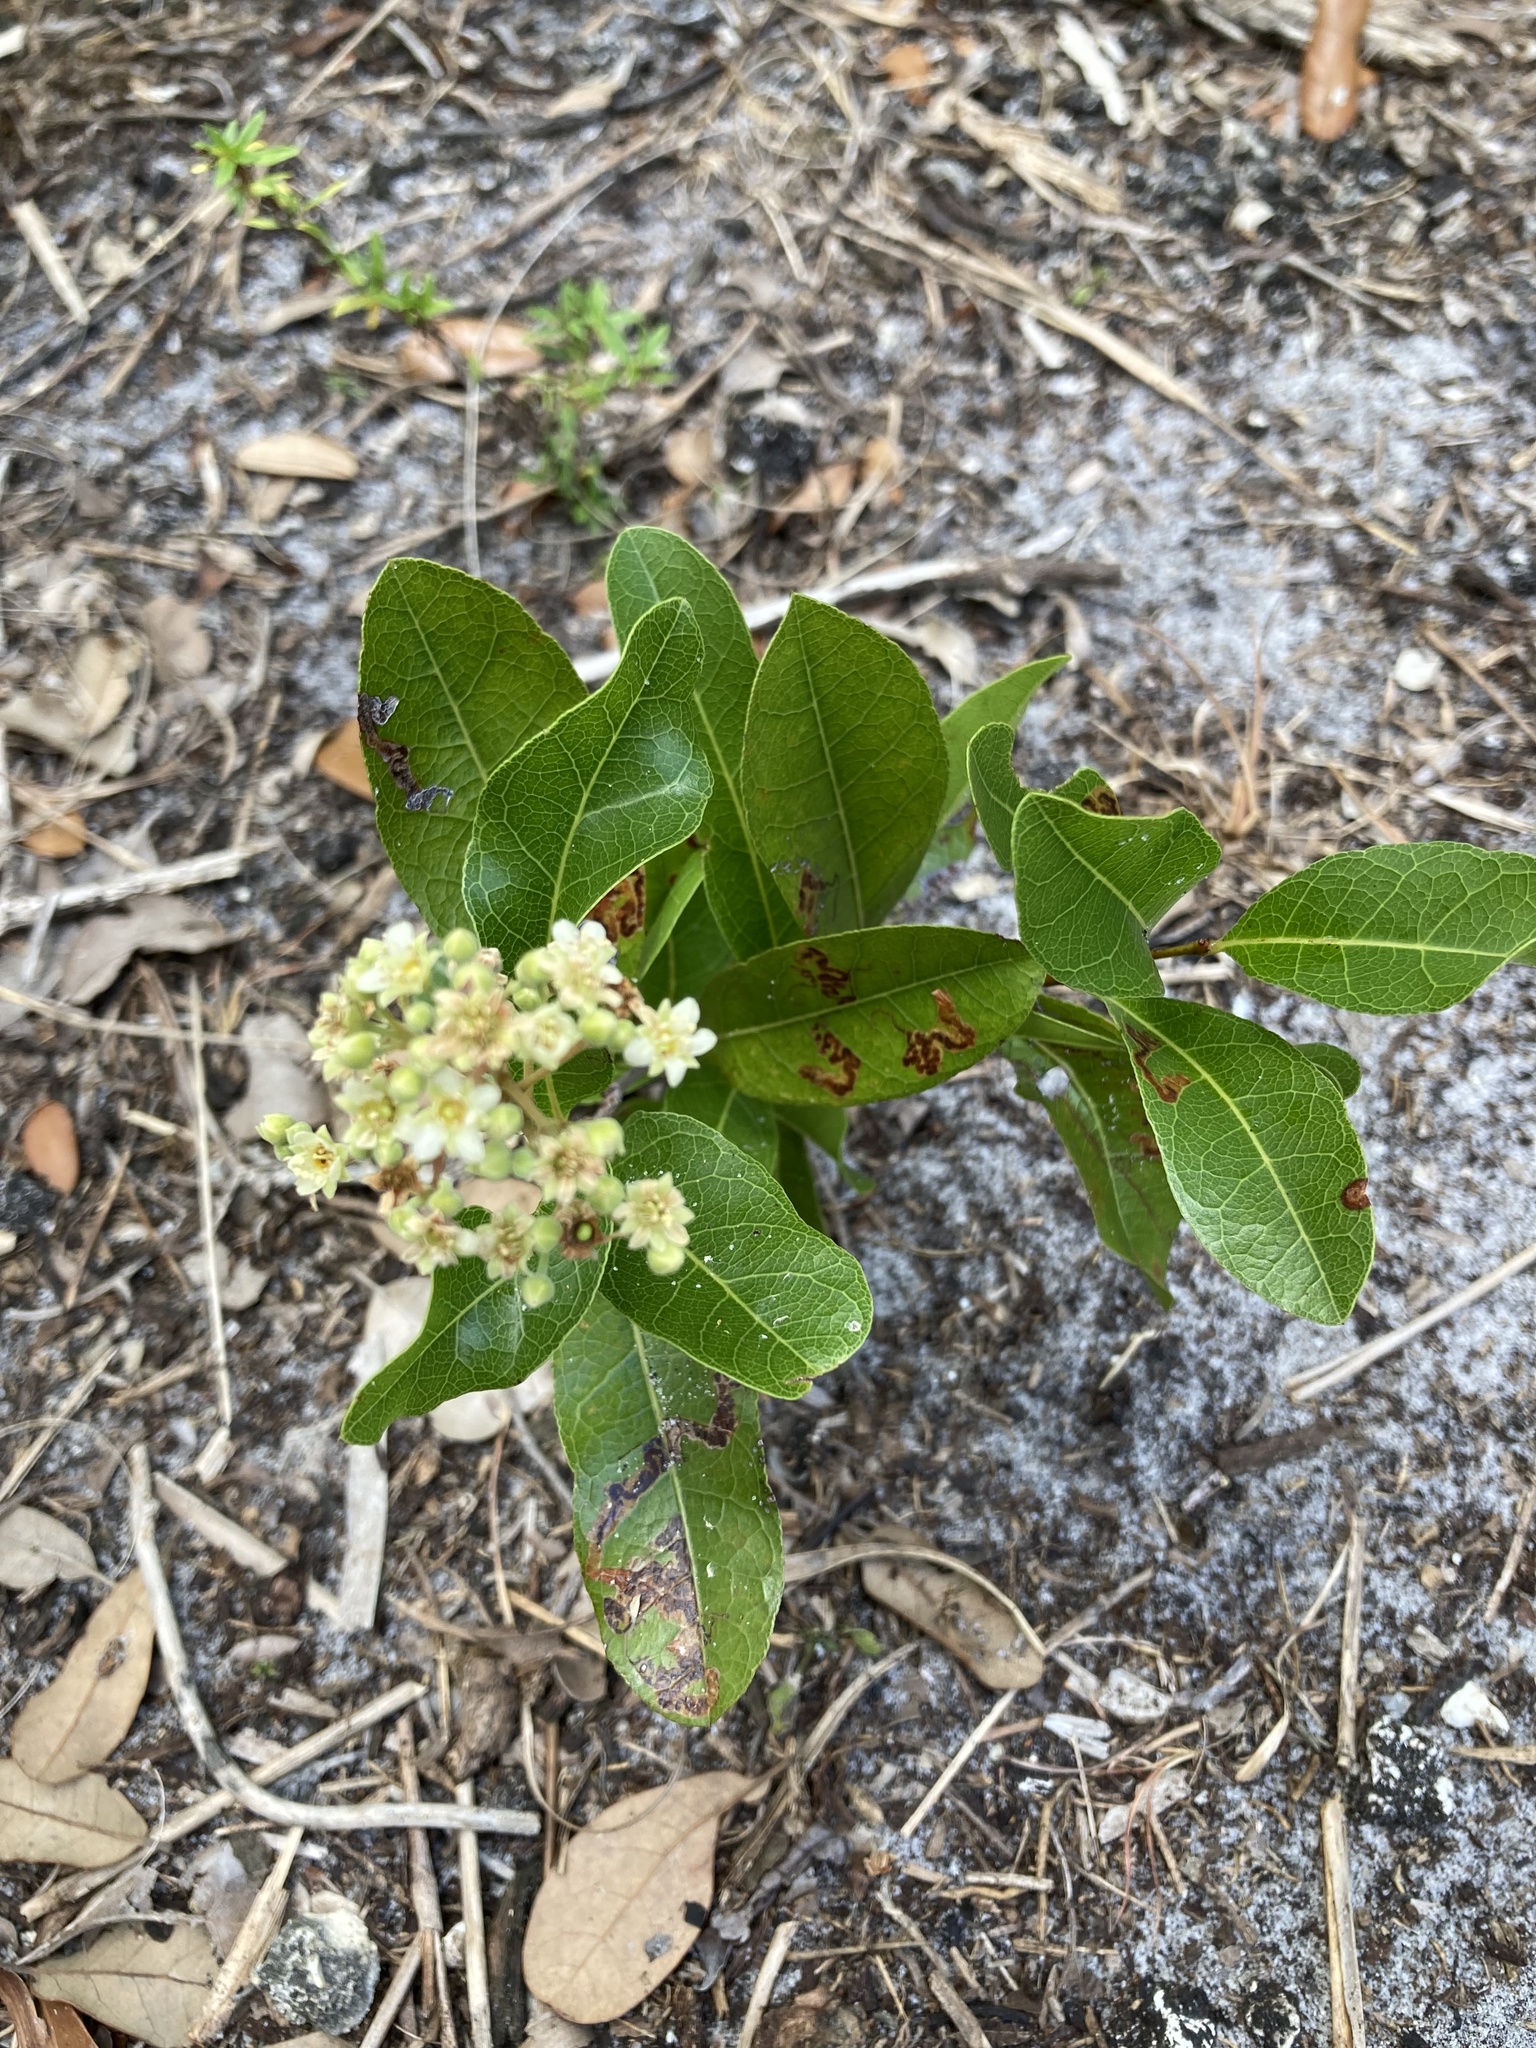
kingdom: Plantae
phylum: Tracheophyta
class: Magnoliopsida
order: Malpighiales
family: Chrysobalanaceae
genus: Geobalanus
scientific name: Geobalanus oblongifolius
